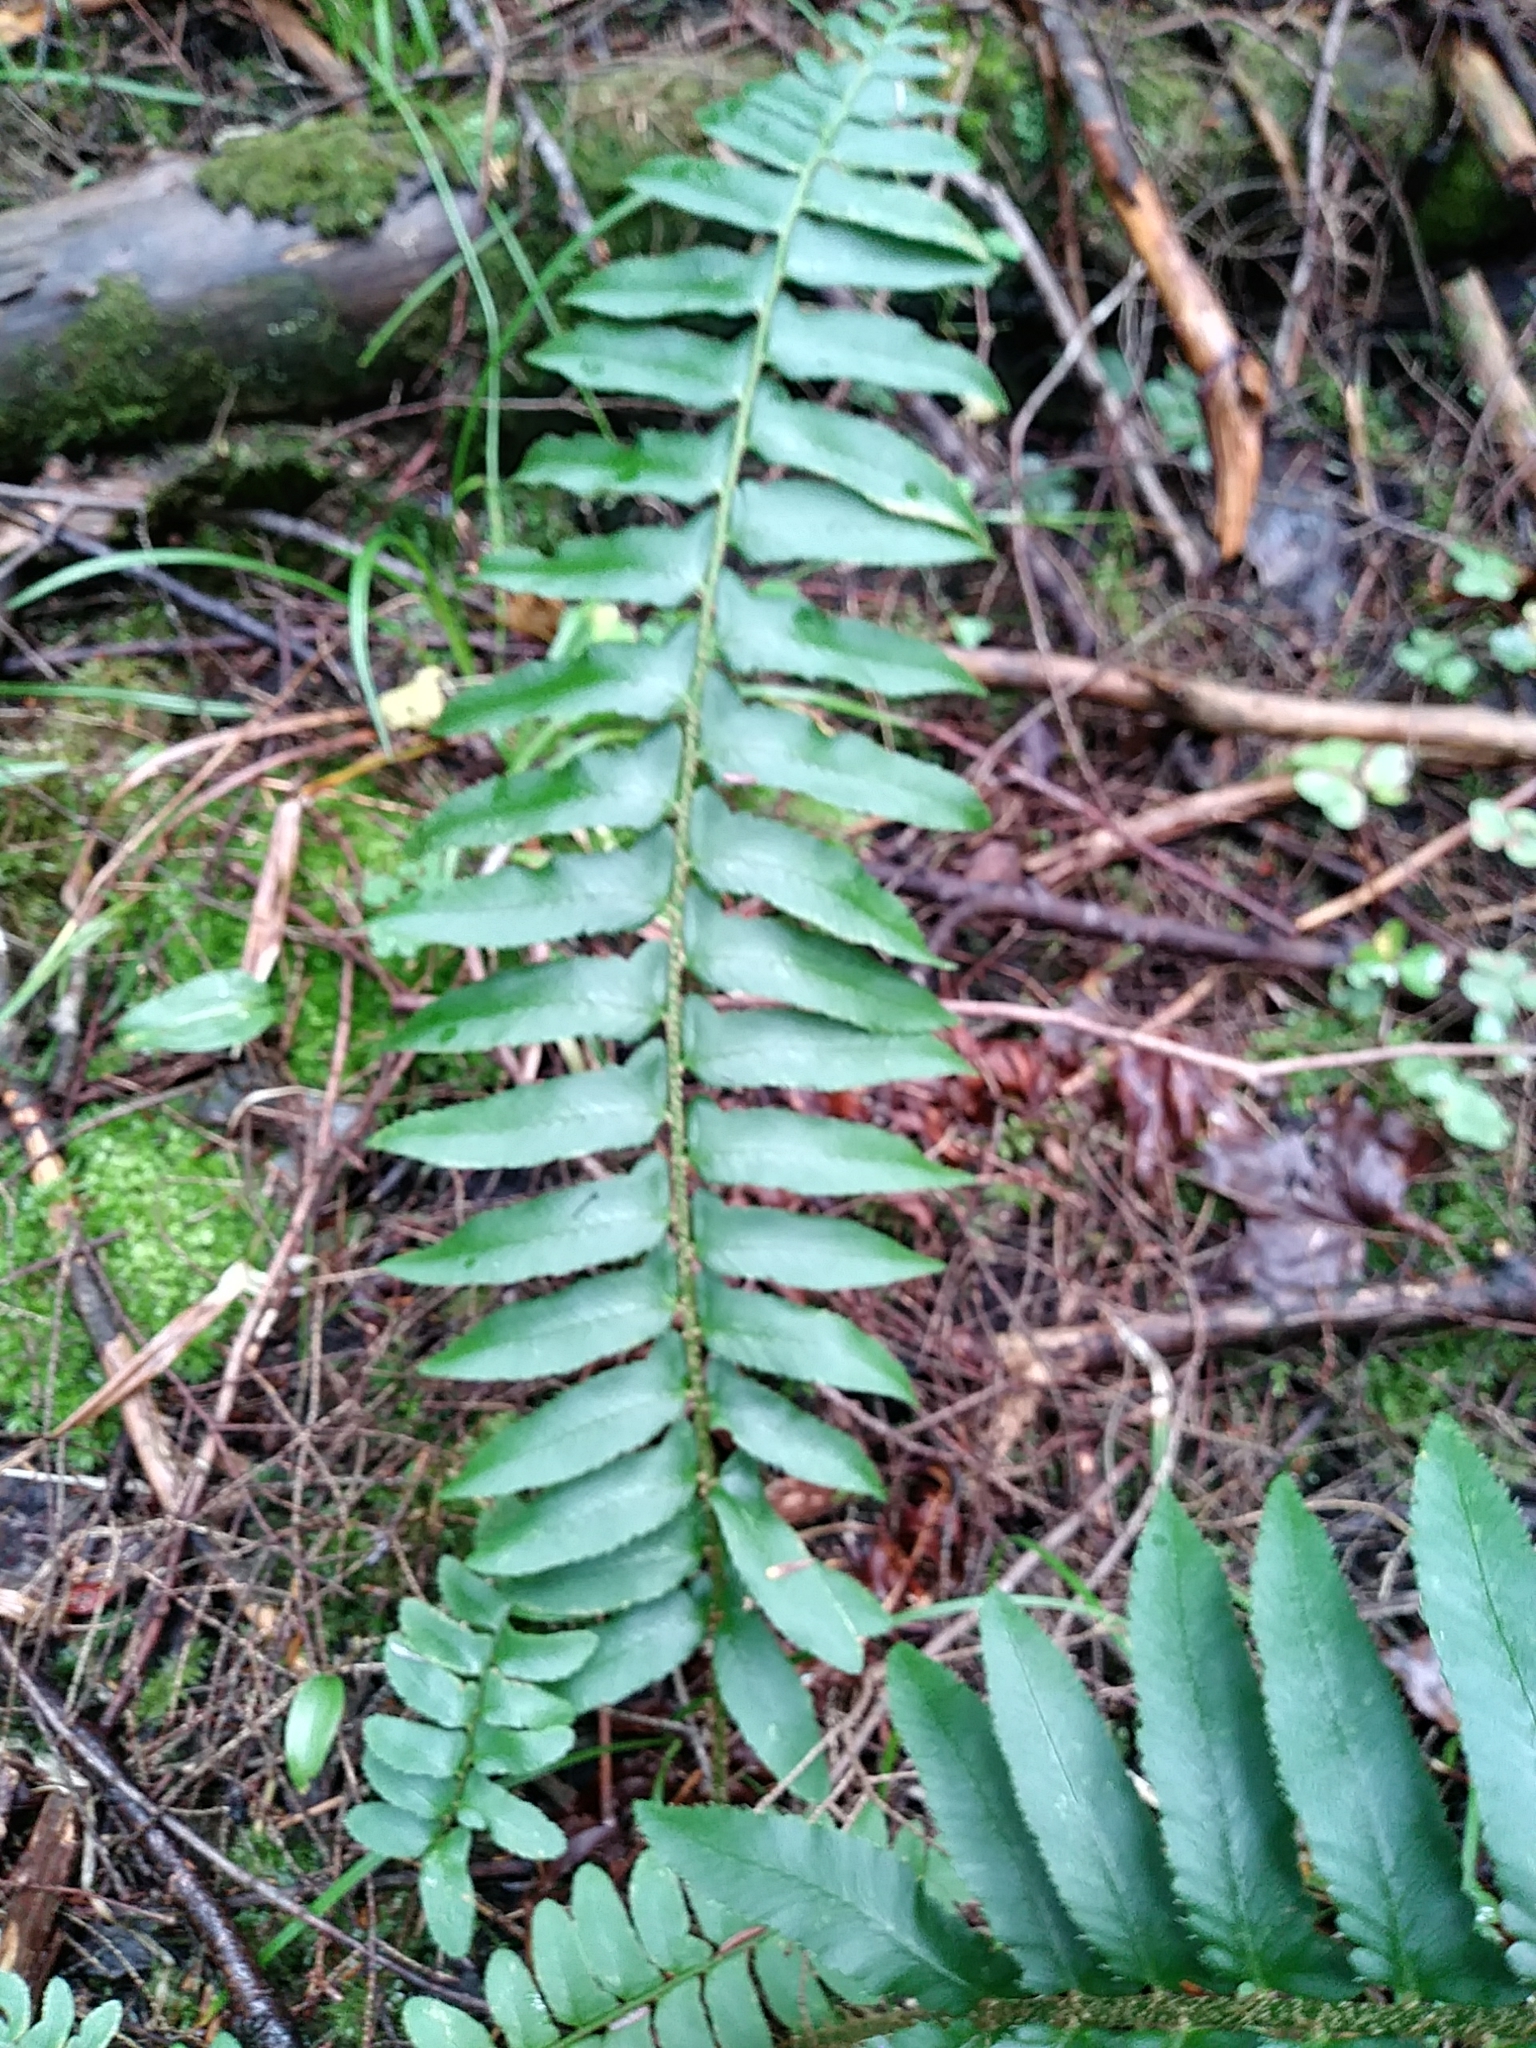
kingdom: Plantae
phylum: Tracheophyta
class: Polypodiopsida
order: Polypodiales
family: Dryopteridaceae
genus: Polystichum
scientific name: Polystichum acrostichoides
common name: Christmas fern
